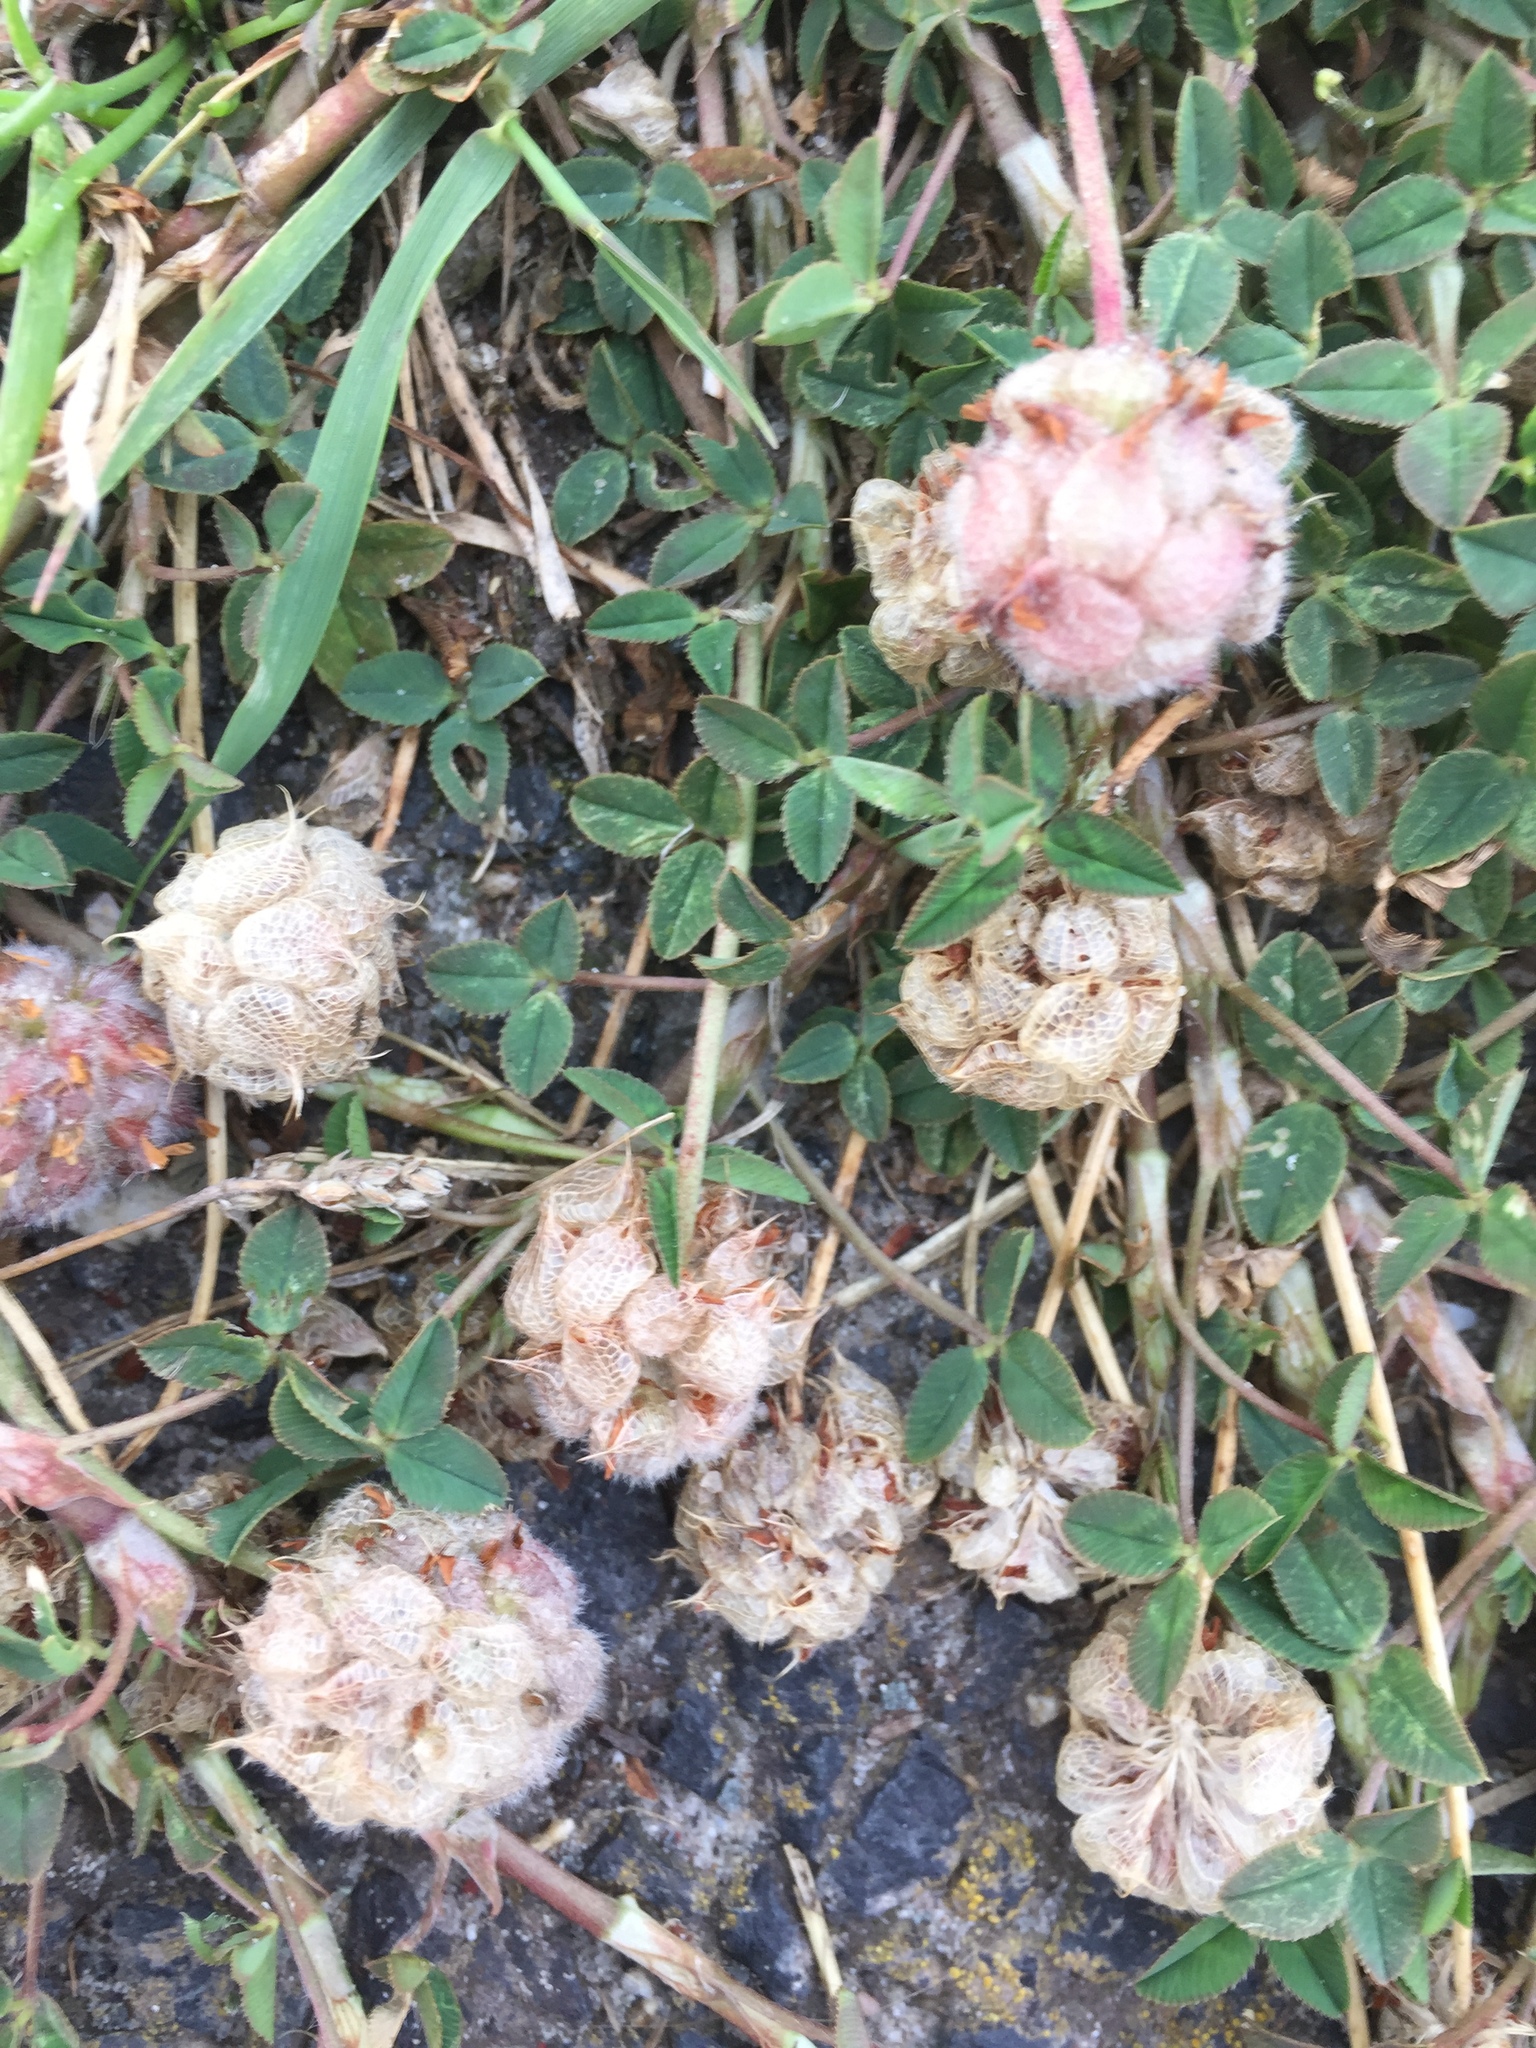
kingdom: Plantae
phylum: Tracheophyta
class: Magnoliopsida
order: Fabales
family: Fabaceae
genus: Trifolium
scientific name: Trifolium fragiferum
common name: Strawberry clover
